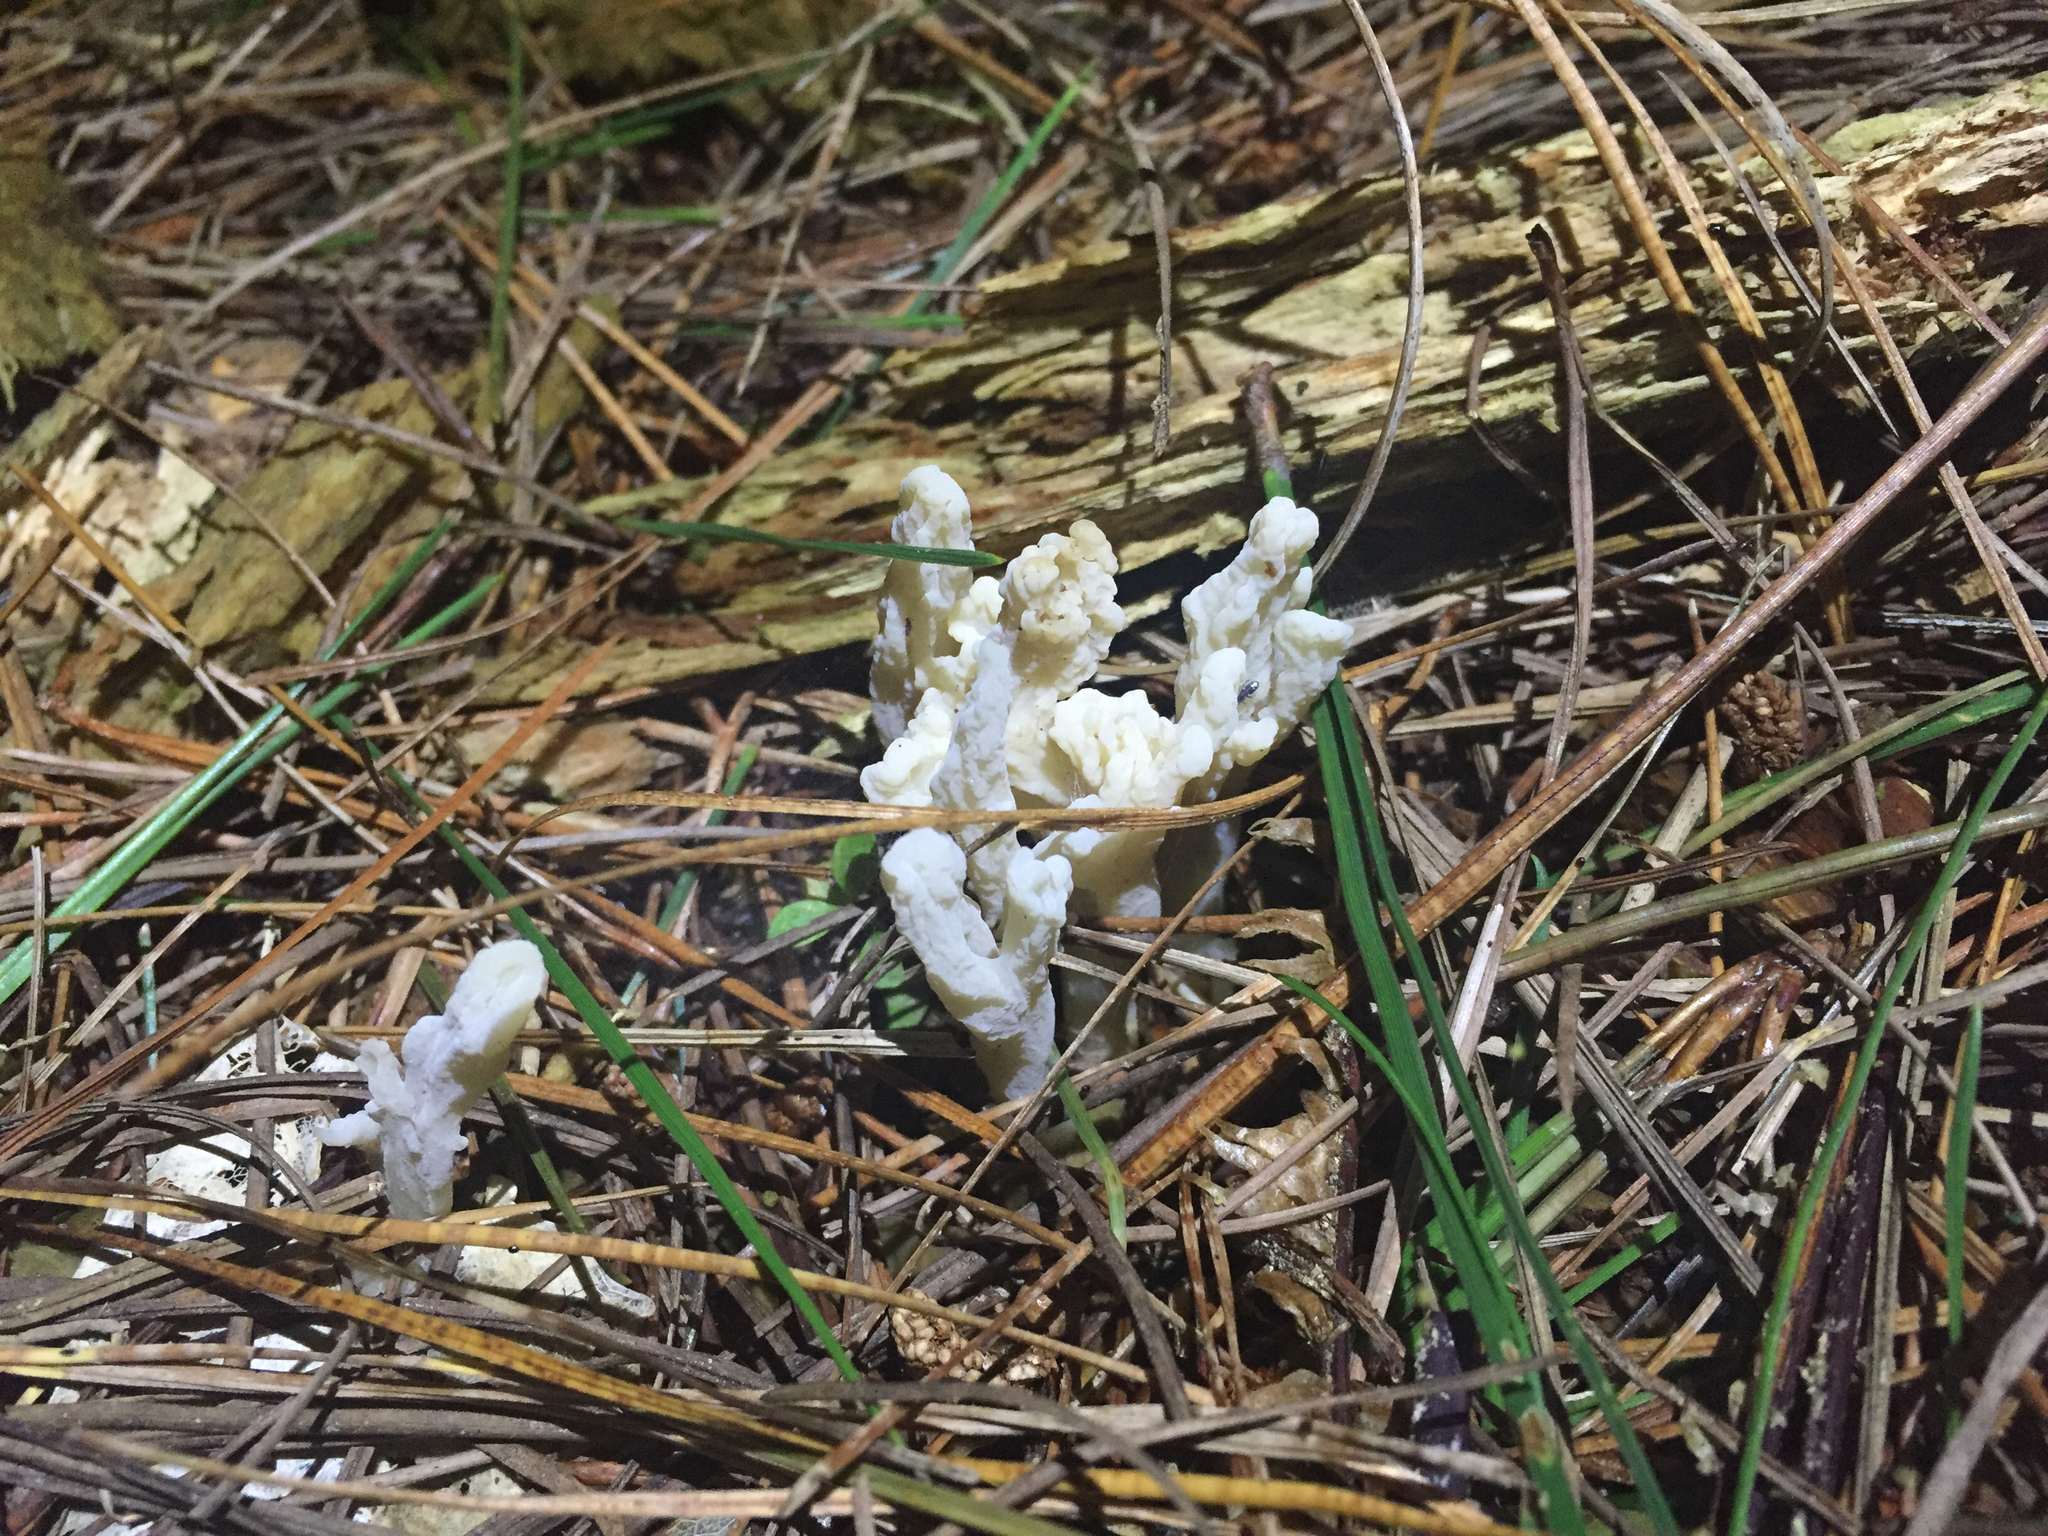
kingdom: Fungi
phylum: Basidiomycota
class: Agaricomycetes
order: Cantharellales
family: Hydnaceae
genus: Clavulina
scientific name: Clavulina rugosa
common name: Wrinkled club
